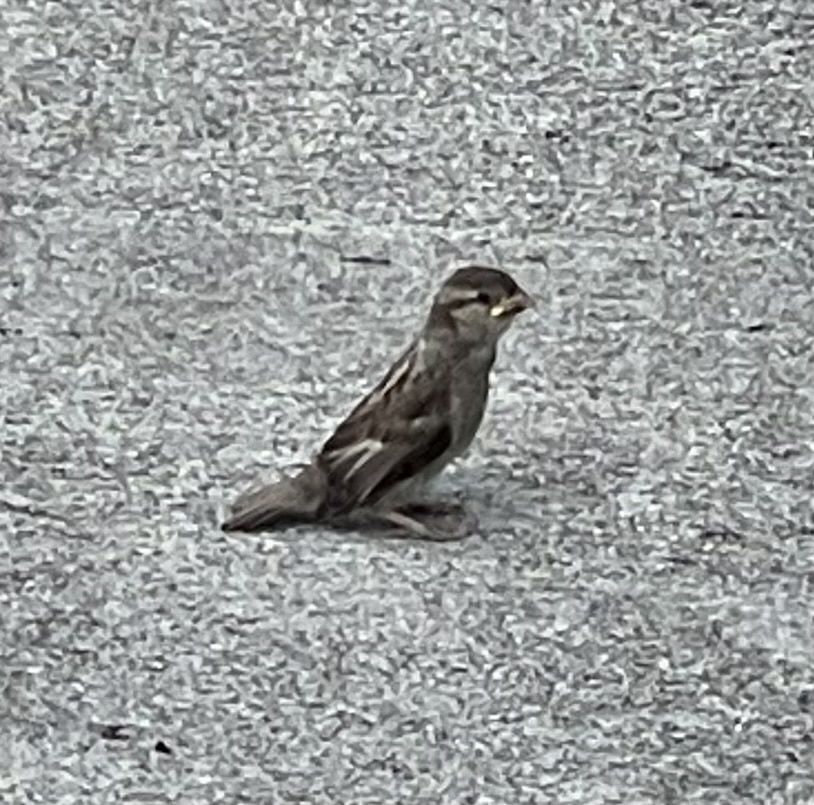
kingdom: Animalia
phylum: Chordata
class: Aves
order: Passeriformes
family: Passeridae
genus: Passer
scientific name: Passer domesticus
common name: House sparrow
